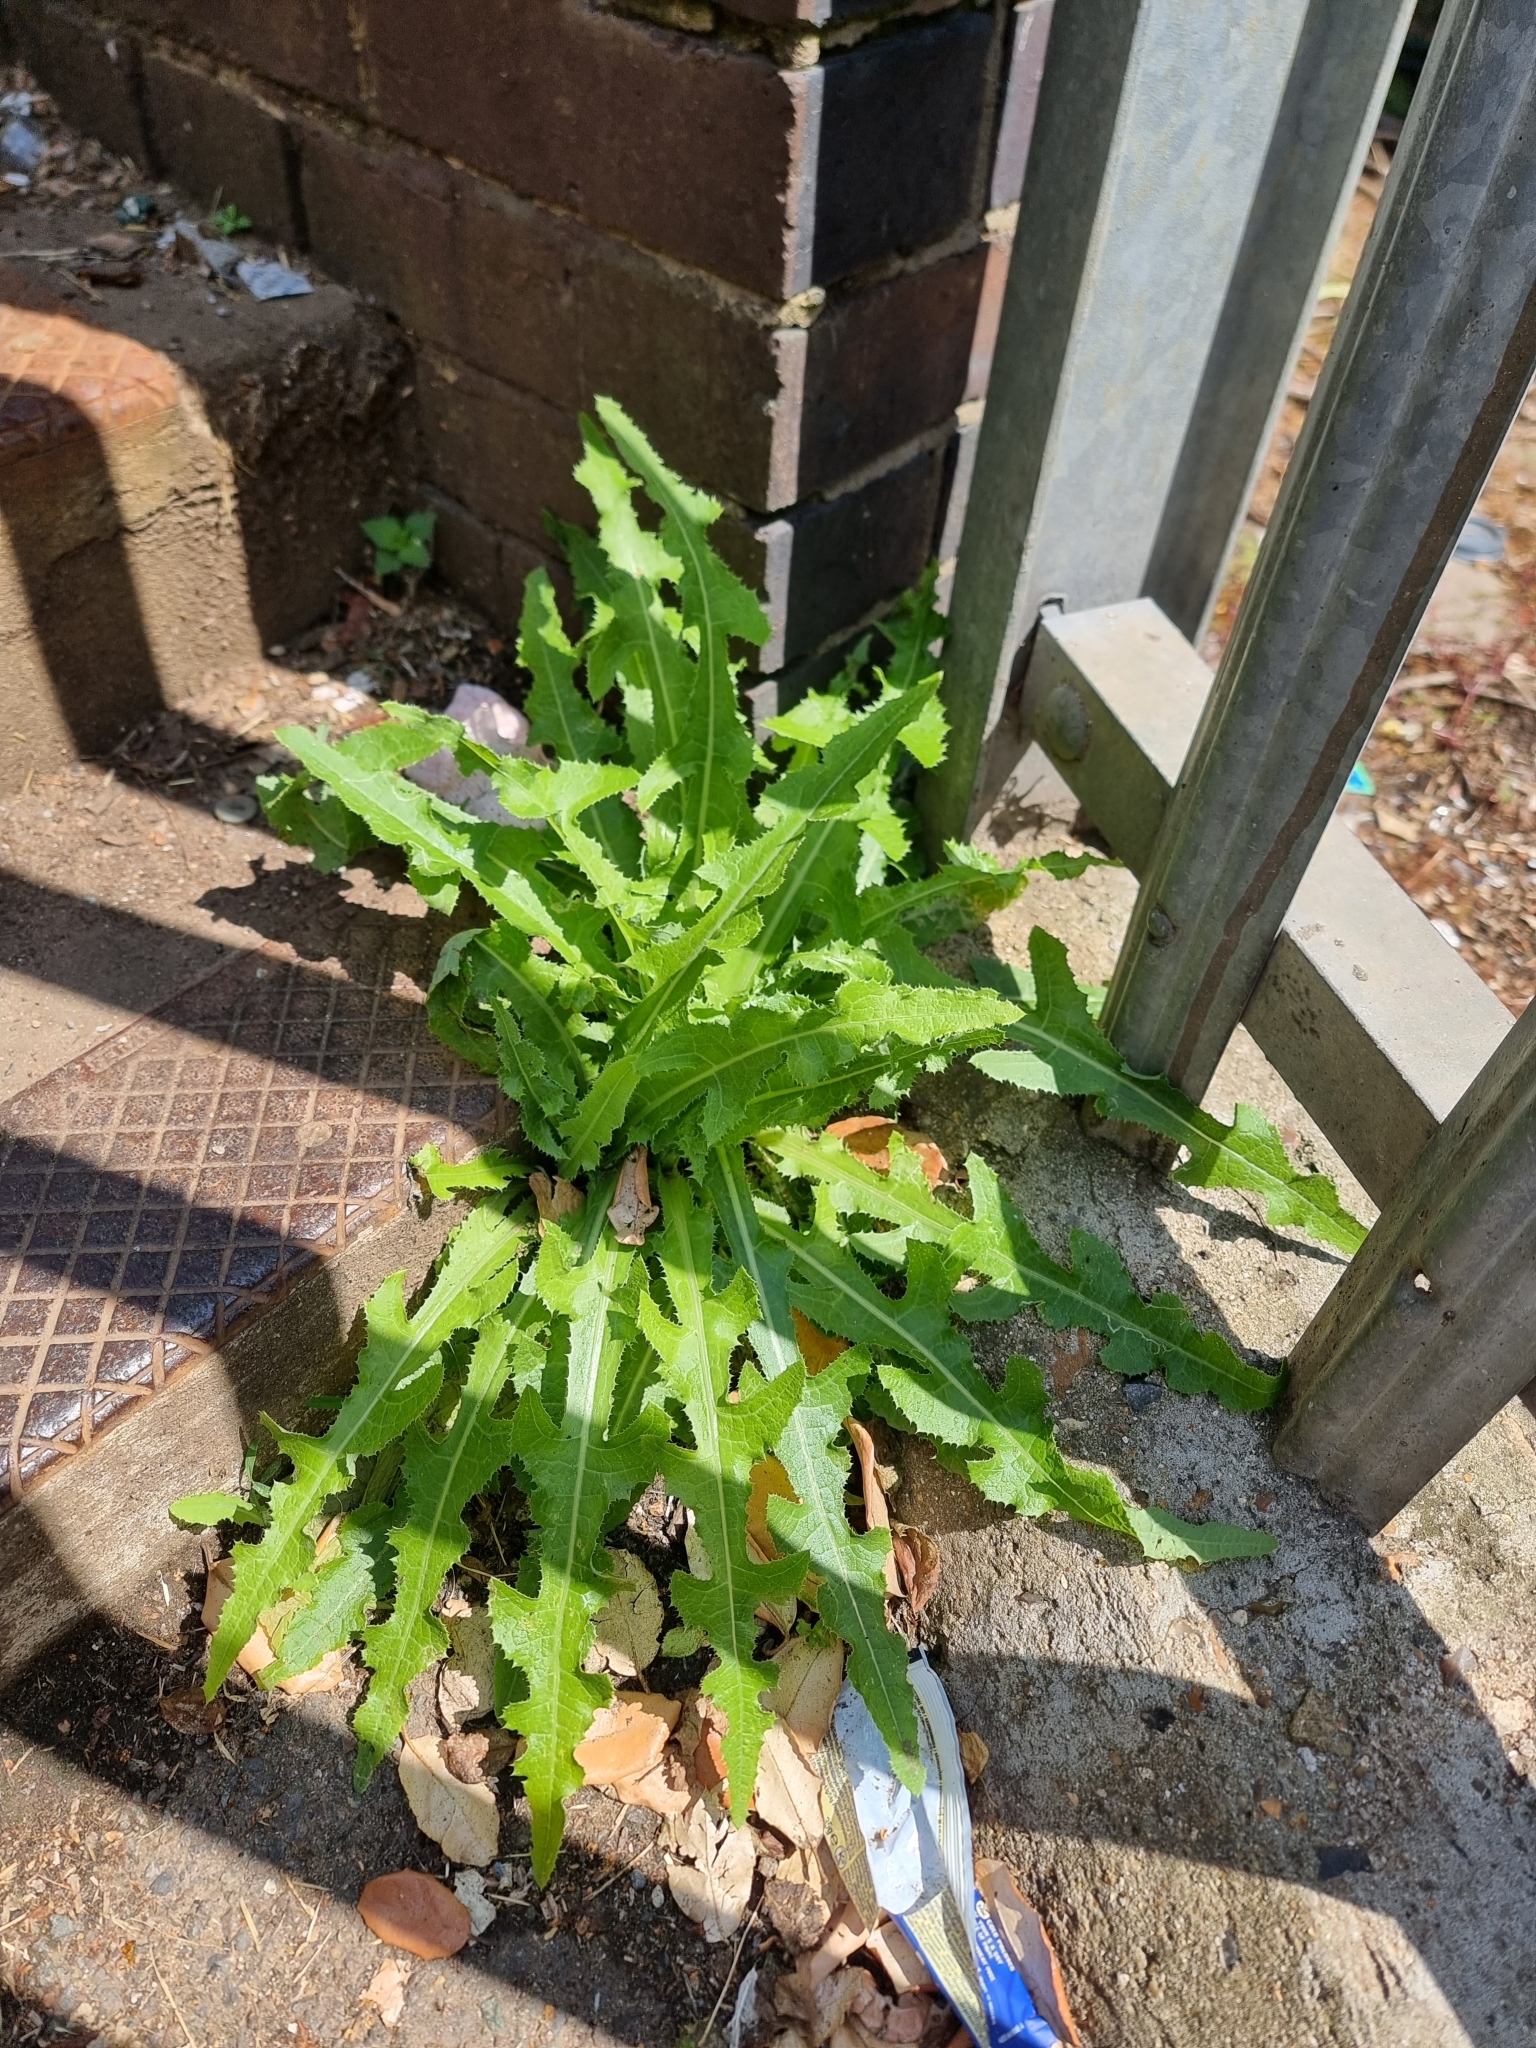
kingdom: Plantae
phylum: Tracheophyta
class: Magnoliopsida
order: Asterales
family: Asteraceae
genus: Sonchus
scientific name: Sonchus arvensis
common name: Perennial sow-thistle
